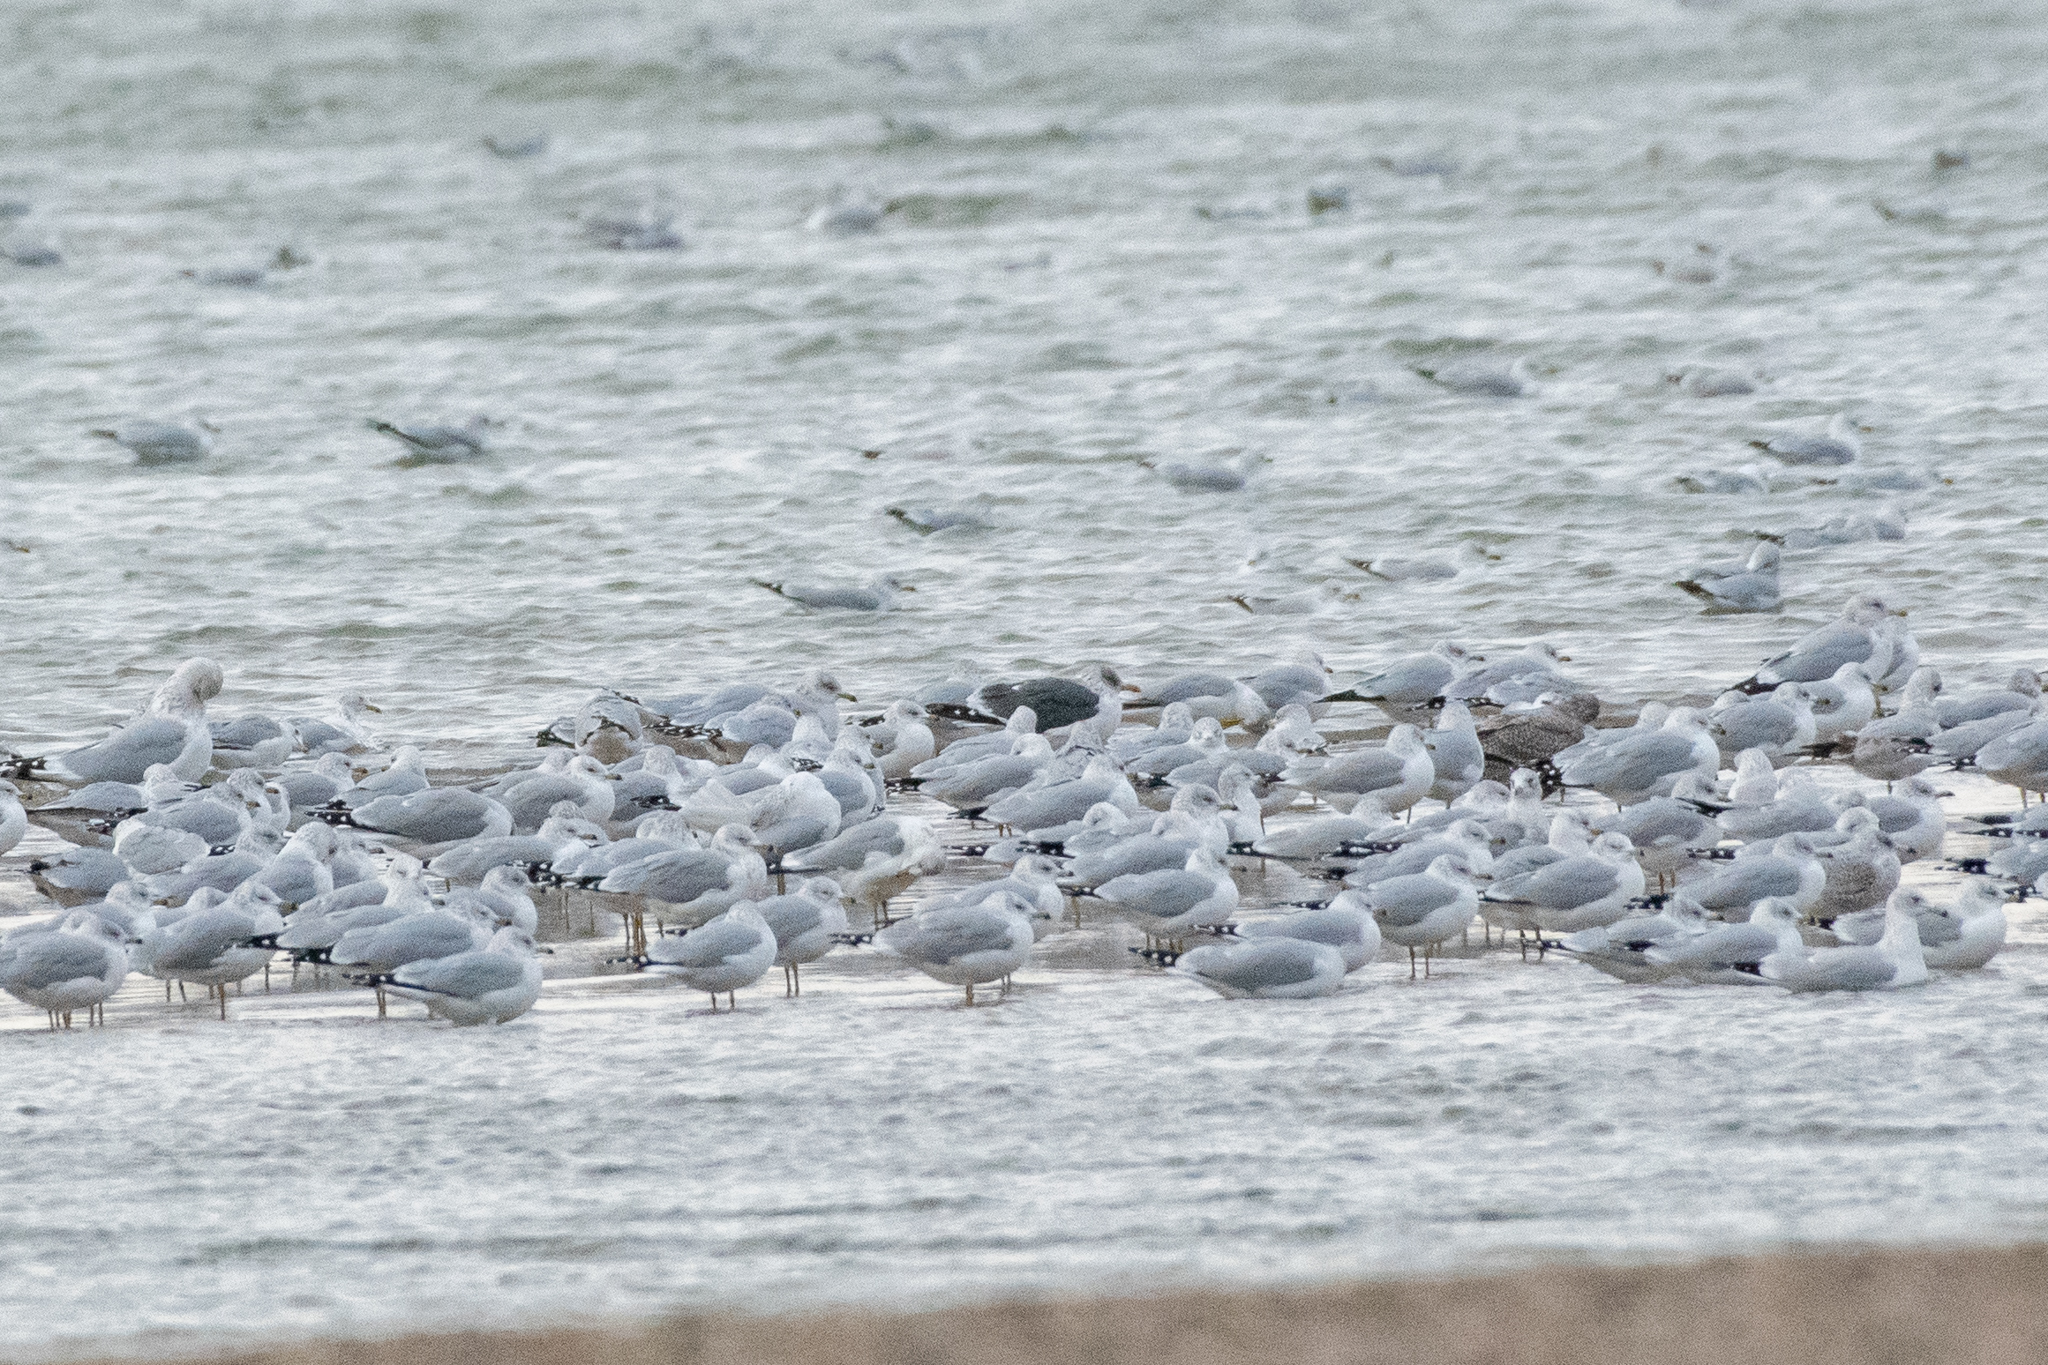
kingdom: Animalia
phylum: Chordata
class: Aves
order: Charadriiformes
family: Laridae
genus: Larus
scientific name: Larus delawarensis
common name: Ring-billed gull
